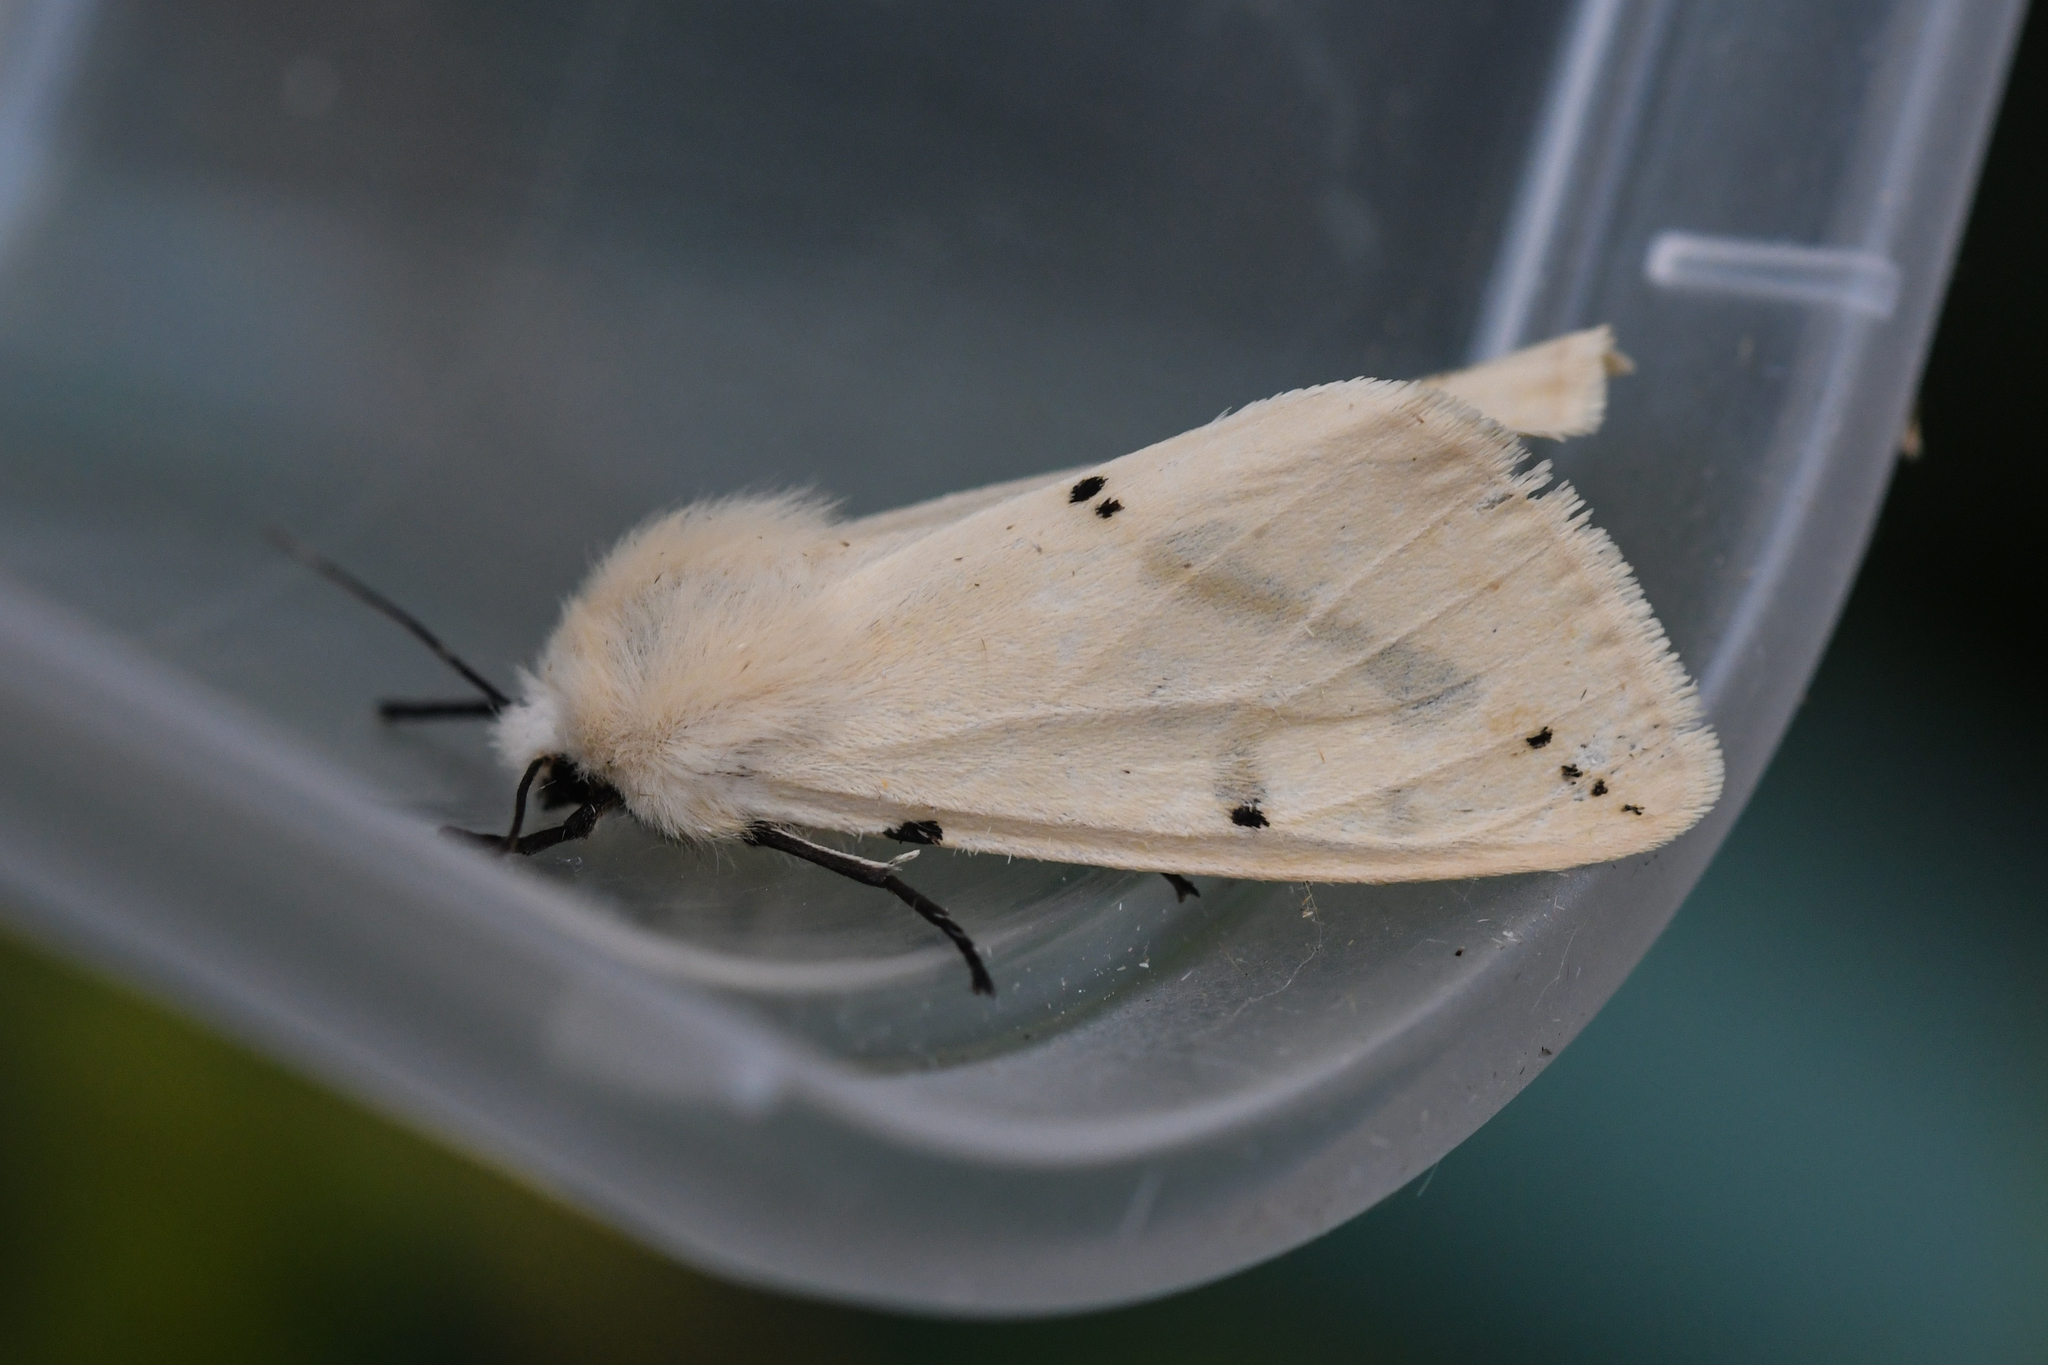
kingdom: Animalia
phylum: Arthropoda
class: Insecta
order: Lepidoptera
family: Erebidae
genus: Spilarctia
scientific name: Spilarctia lutea
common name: Buff ermine
